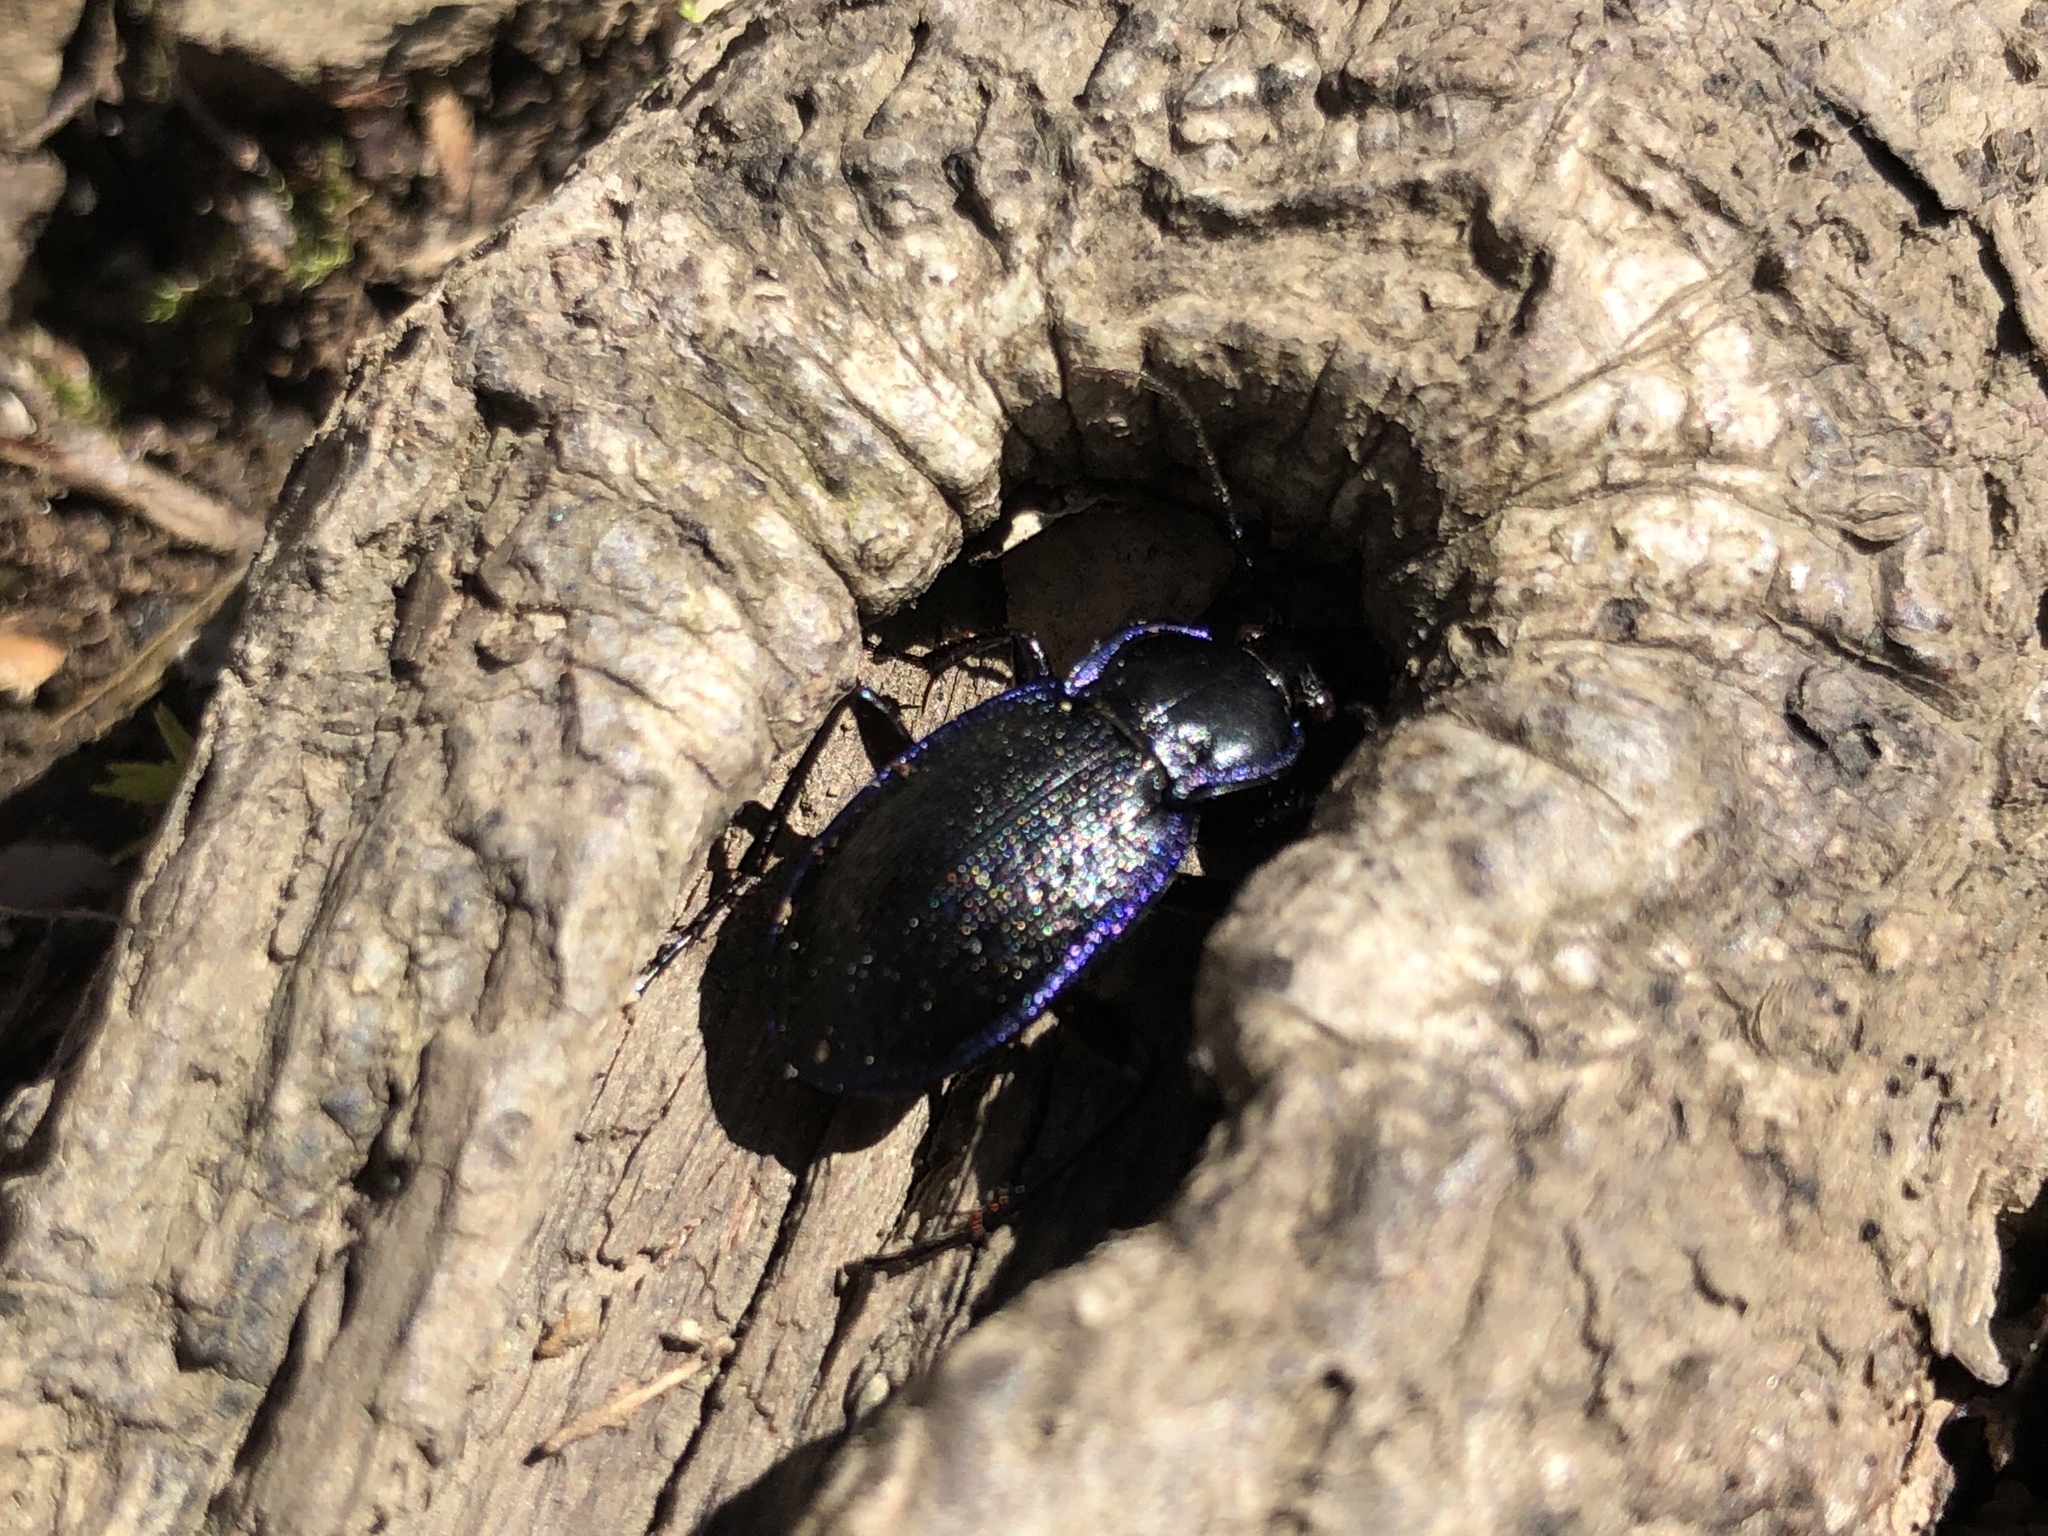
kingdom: Animalia
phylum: Arthropoda
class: Insecta
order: Coleoptera
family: Carabidae
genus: Carabus
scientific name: Carabus serratus
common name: Serrate-shoulder worm and slug hunter
